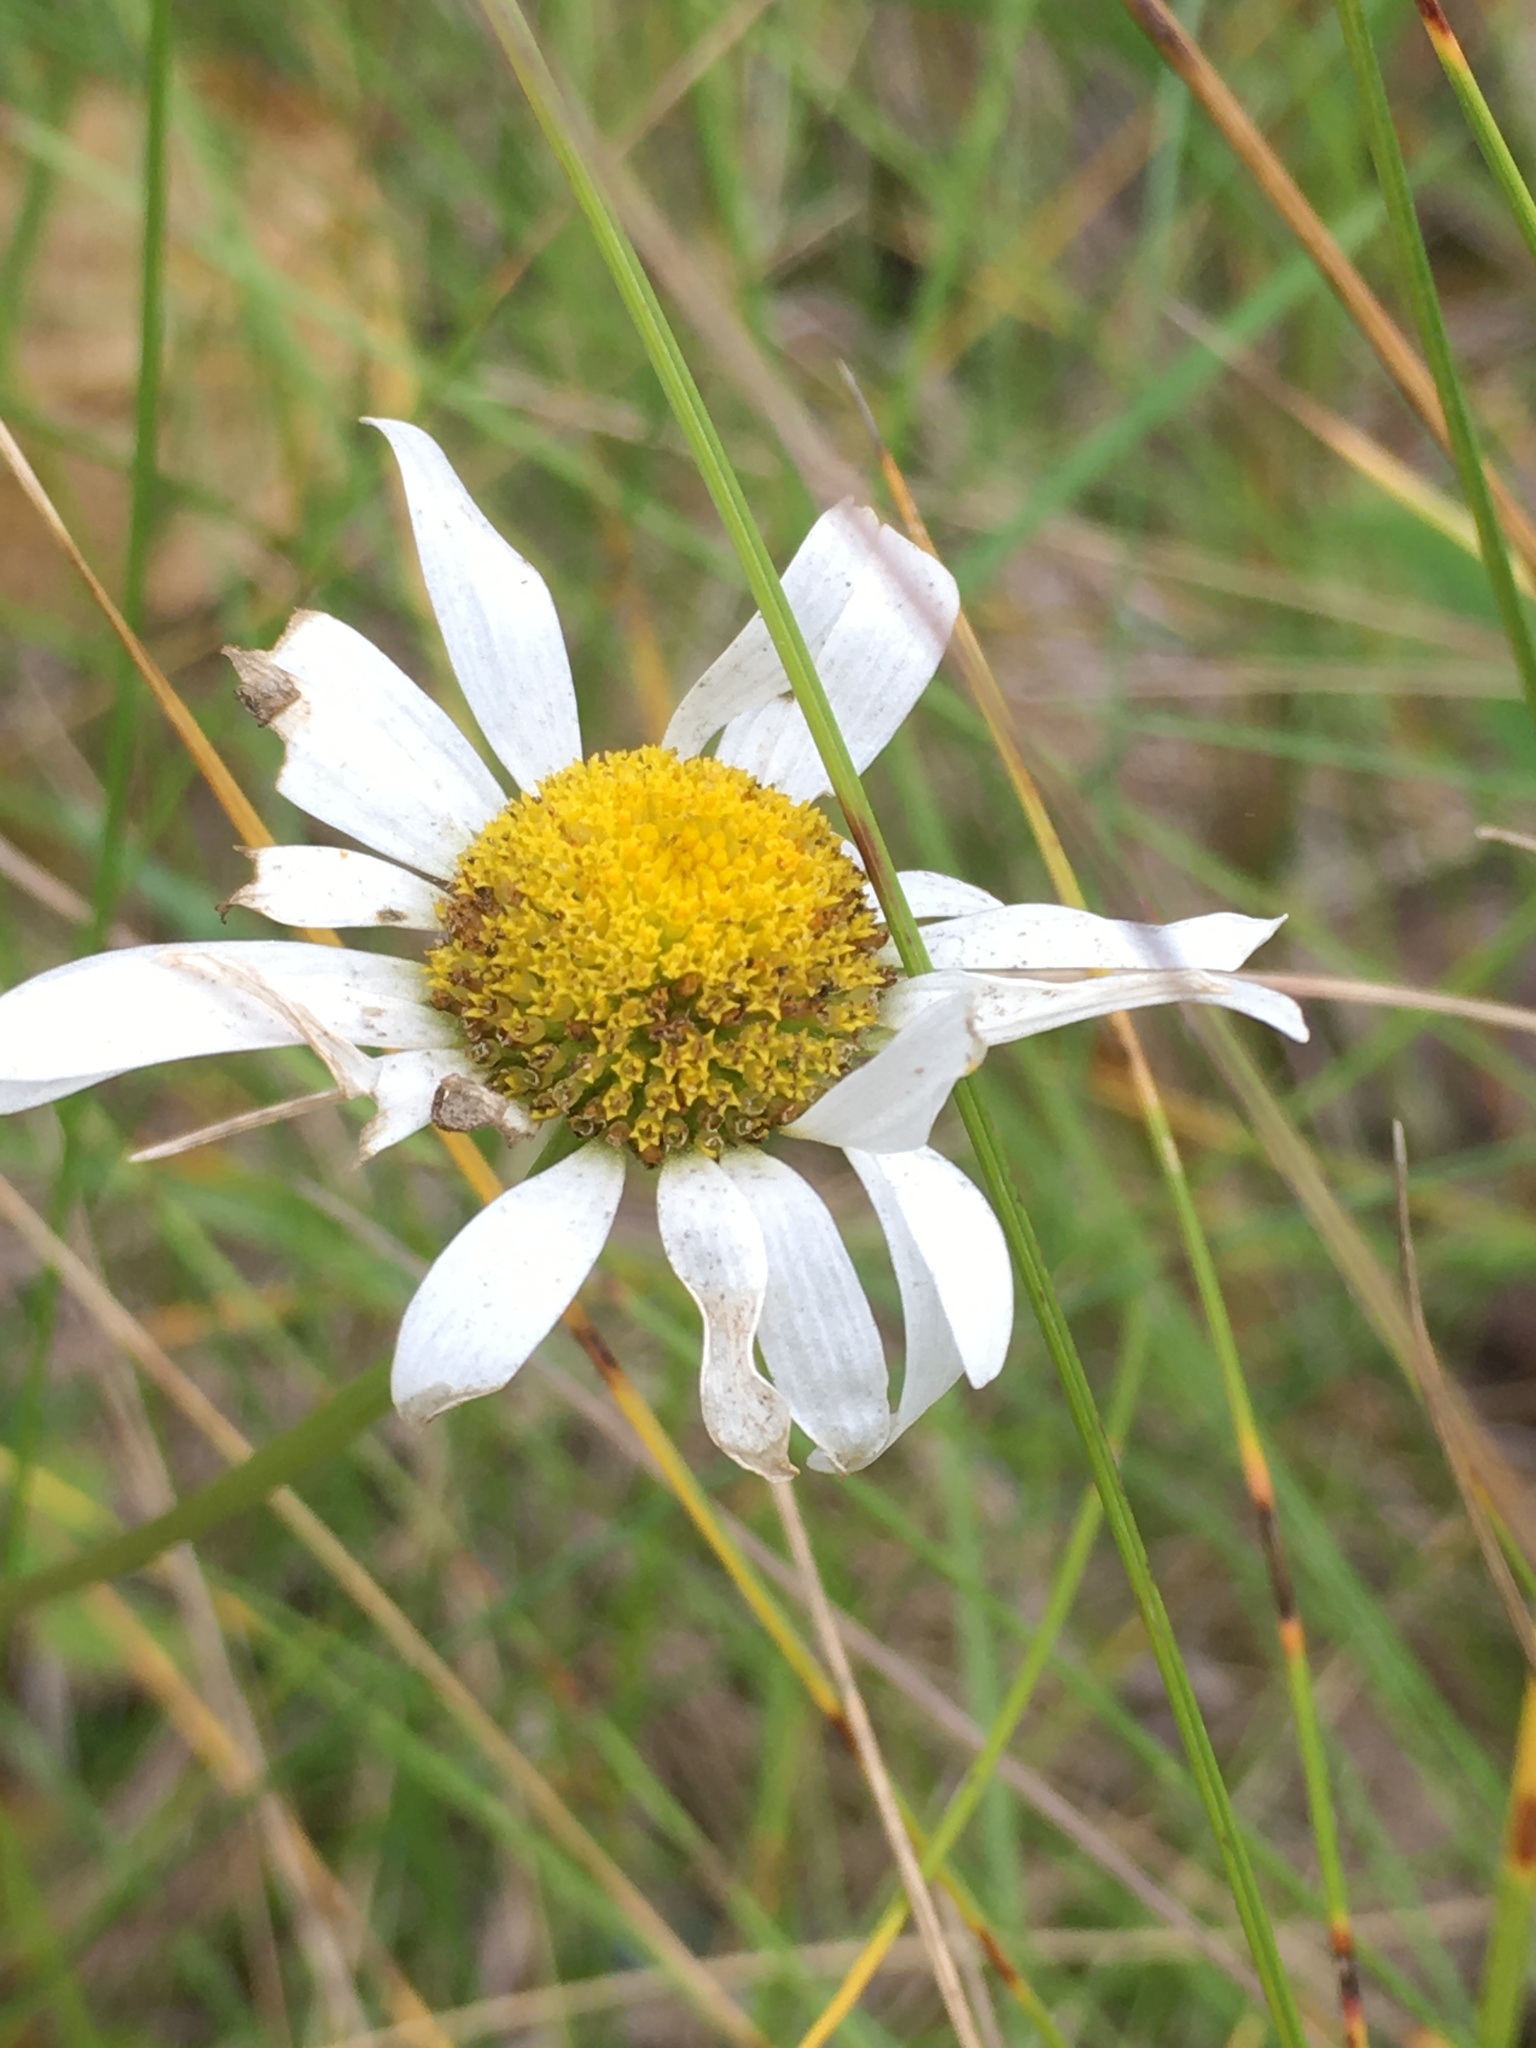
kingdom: Plantae
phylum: Tracheophyta
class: Magnoliopsida
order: Asterales
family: Asteraceae
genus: Leucanthemum
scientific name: Leucanthemum vulgare
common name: Oxeye daisy
